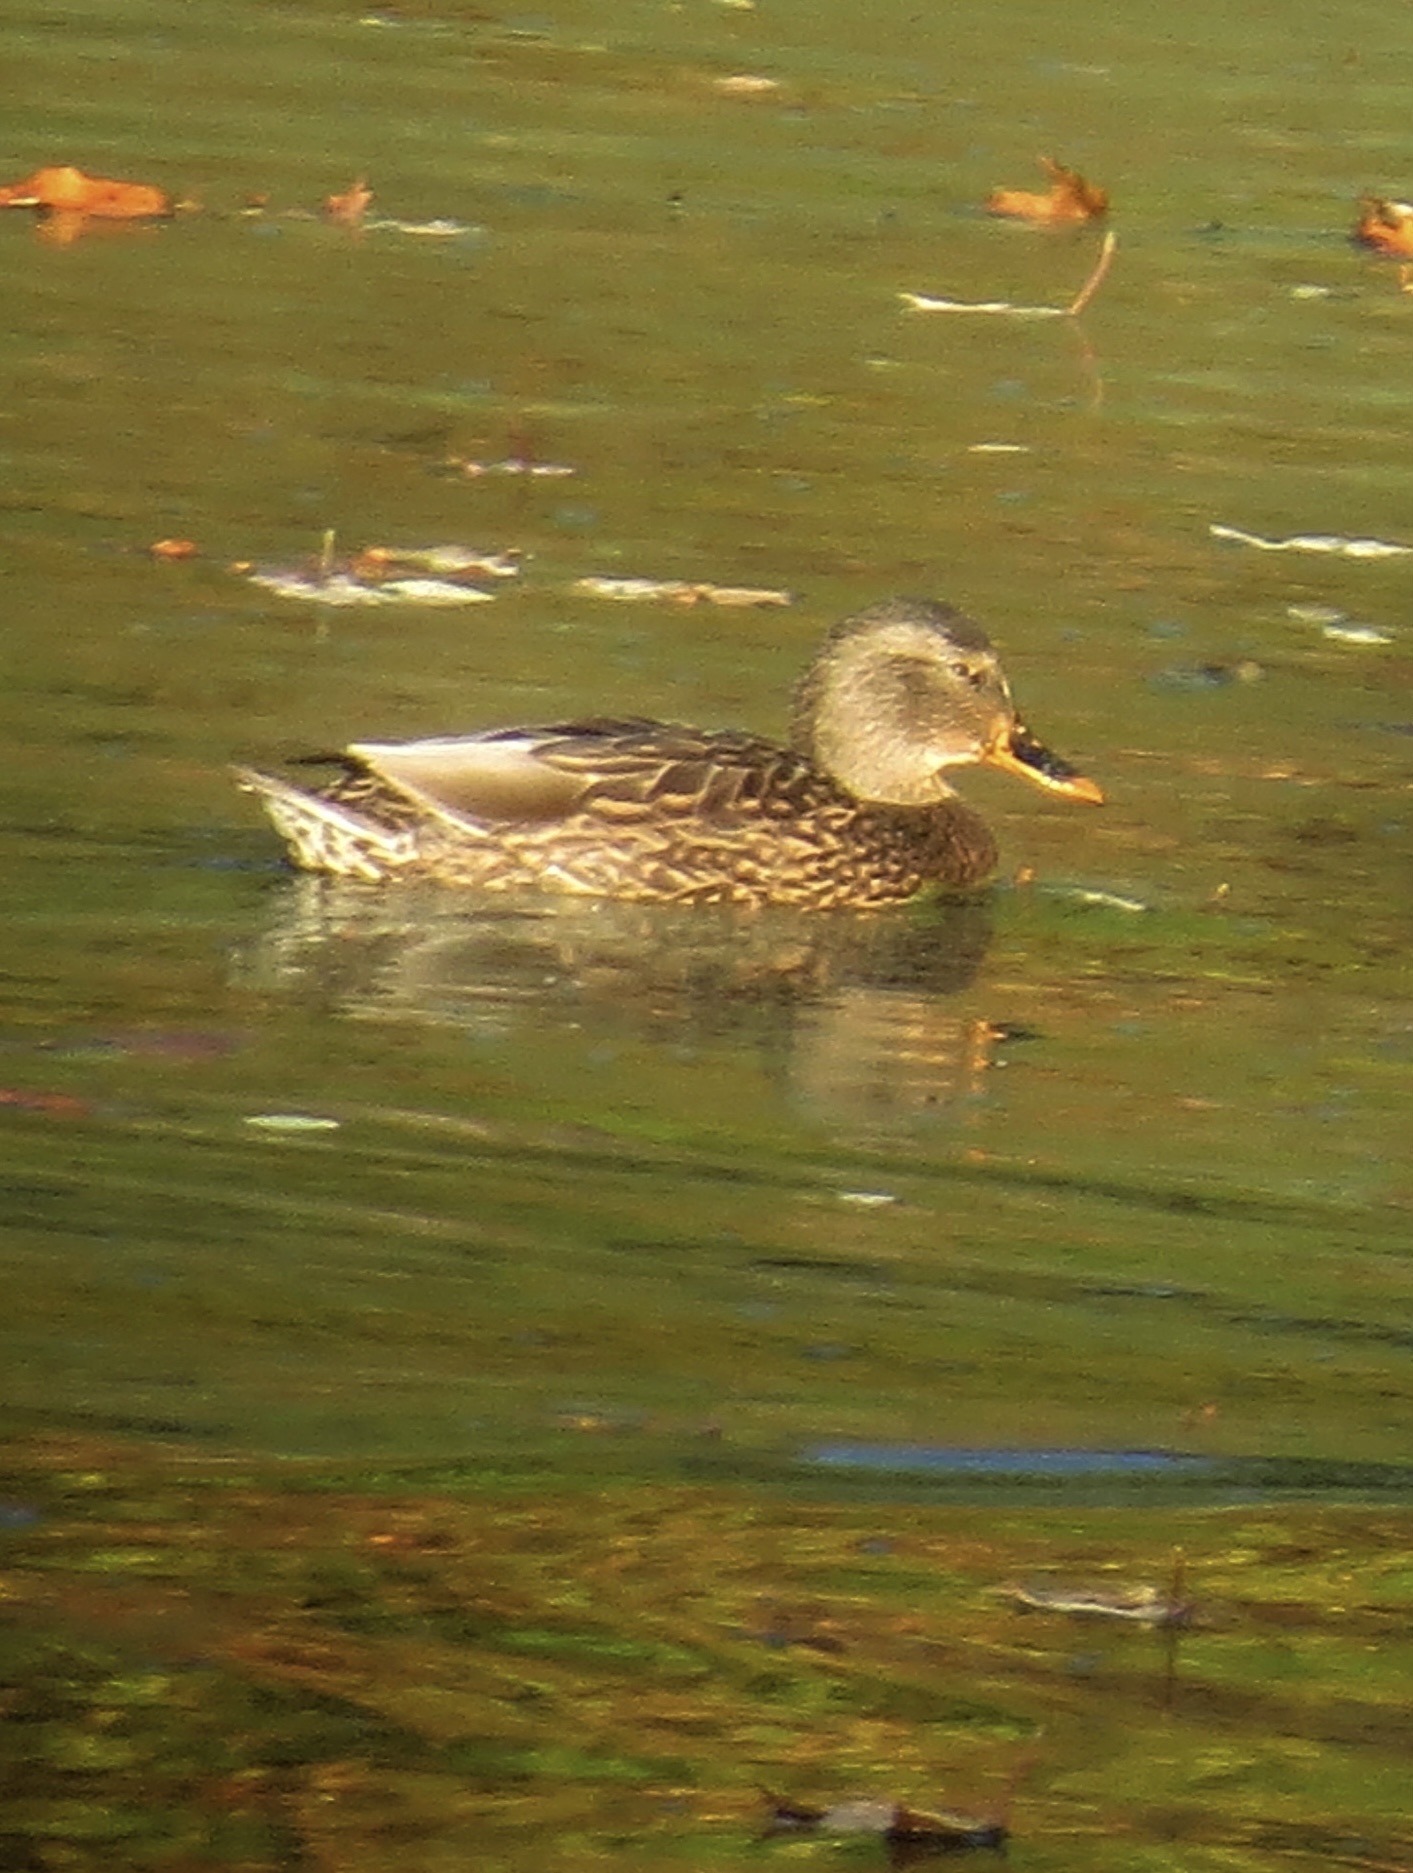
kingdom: Animalia
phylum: Chordata
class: Aves
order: Anseriformes
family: Anatidae
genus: Anas
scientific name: Anas platyrhynchos
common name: Mallard
